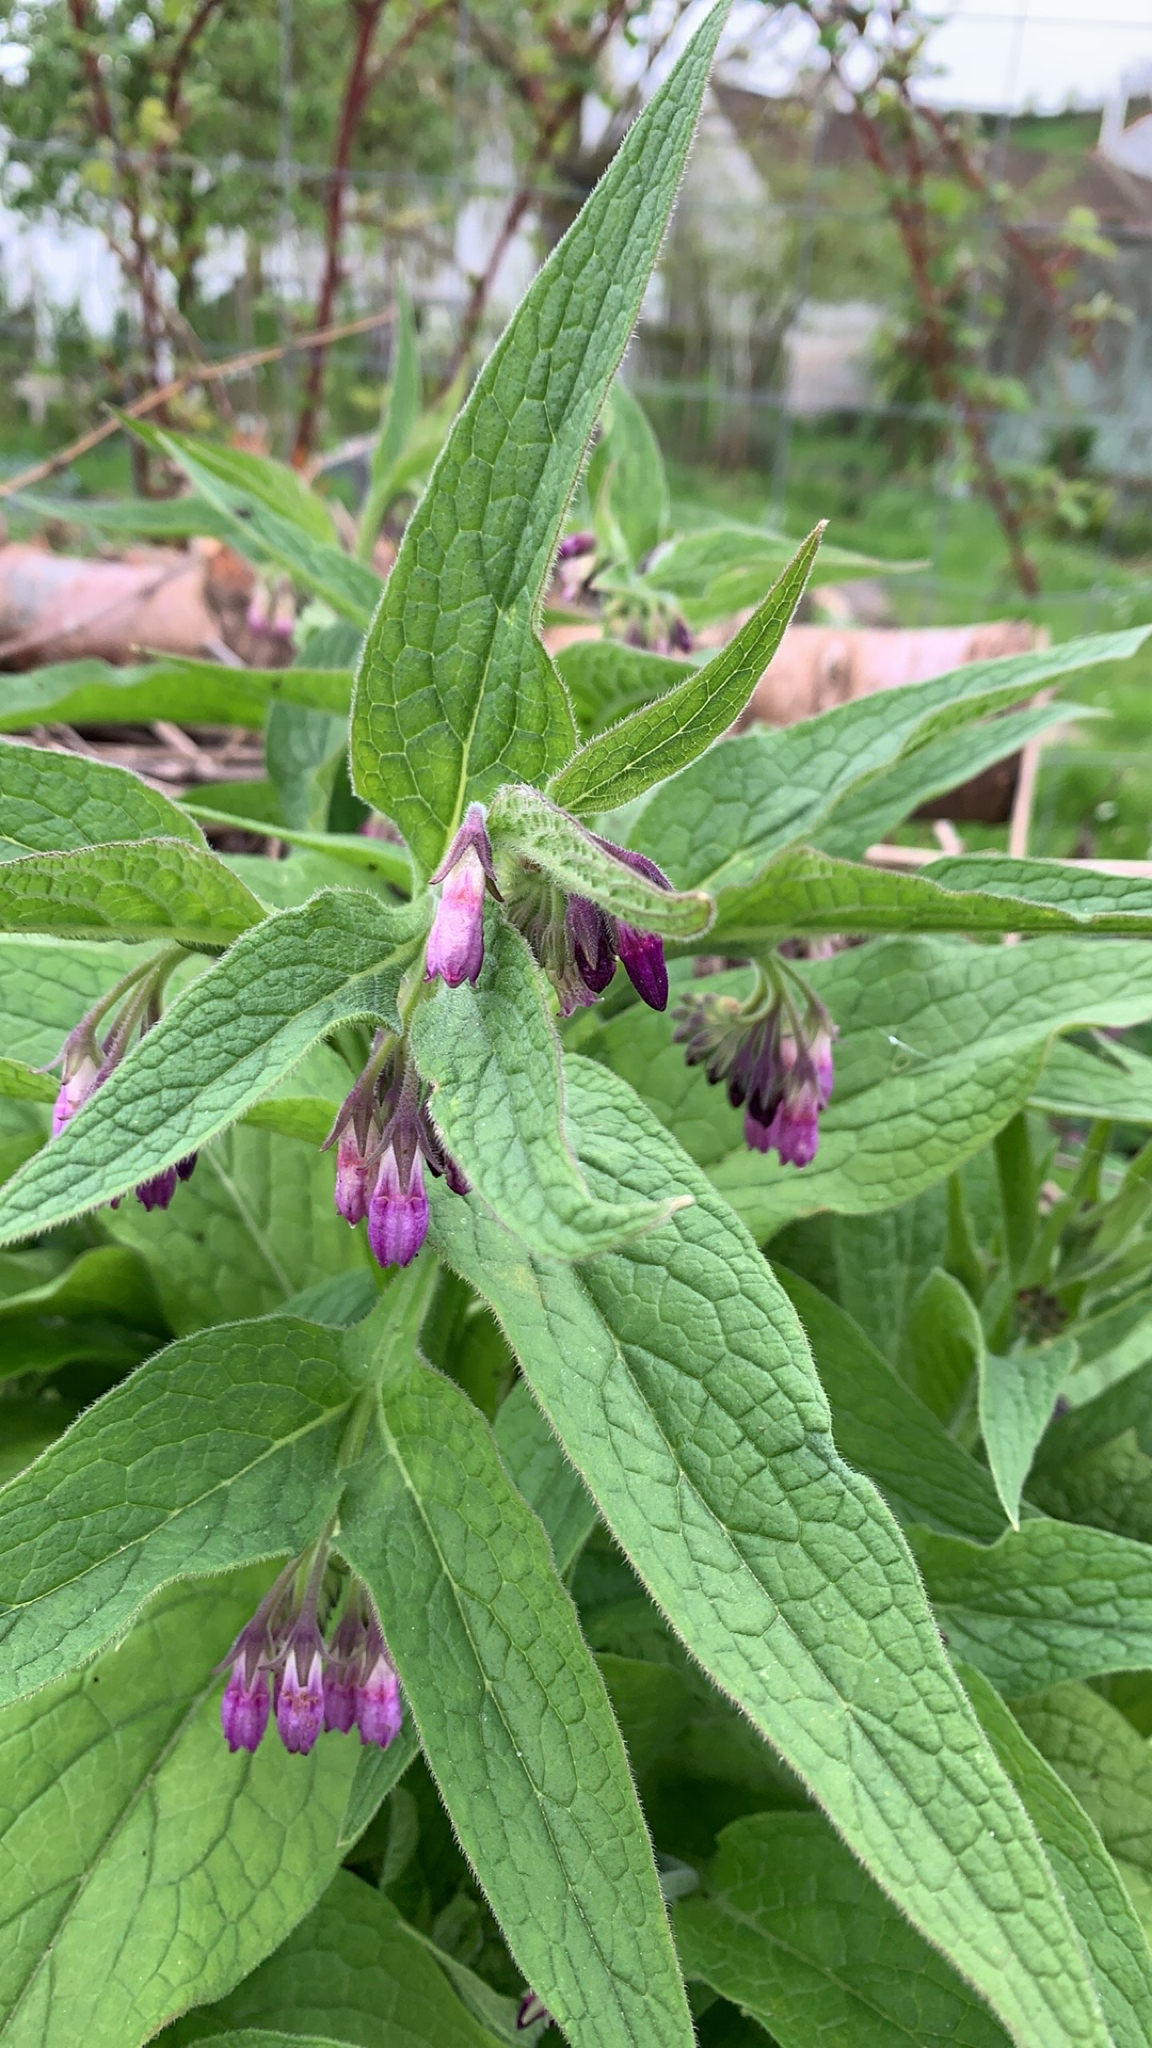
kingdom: Plantae
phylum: Tracheophyta
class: Magnoliopsida
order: Boraginales
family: Boraginaceae
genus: Symphytum
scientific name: Symphytum officinale
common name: Common comfrey
